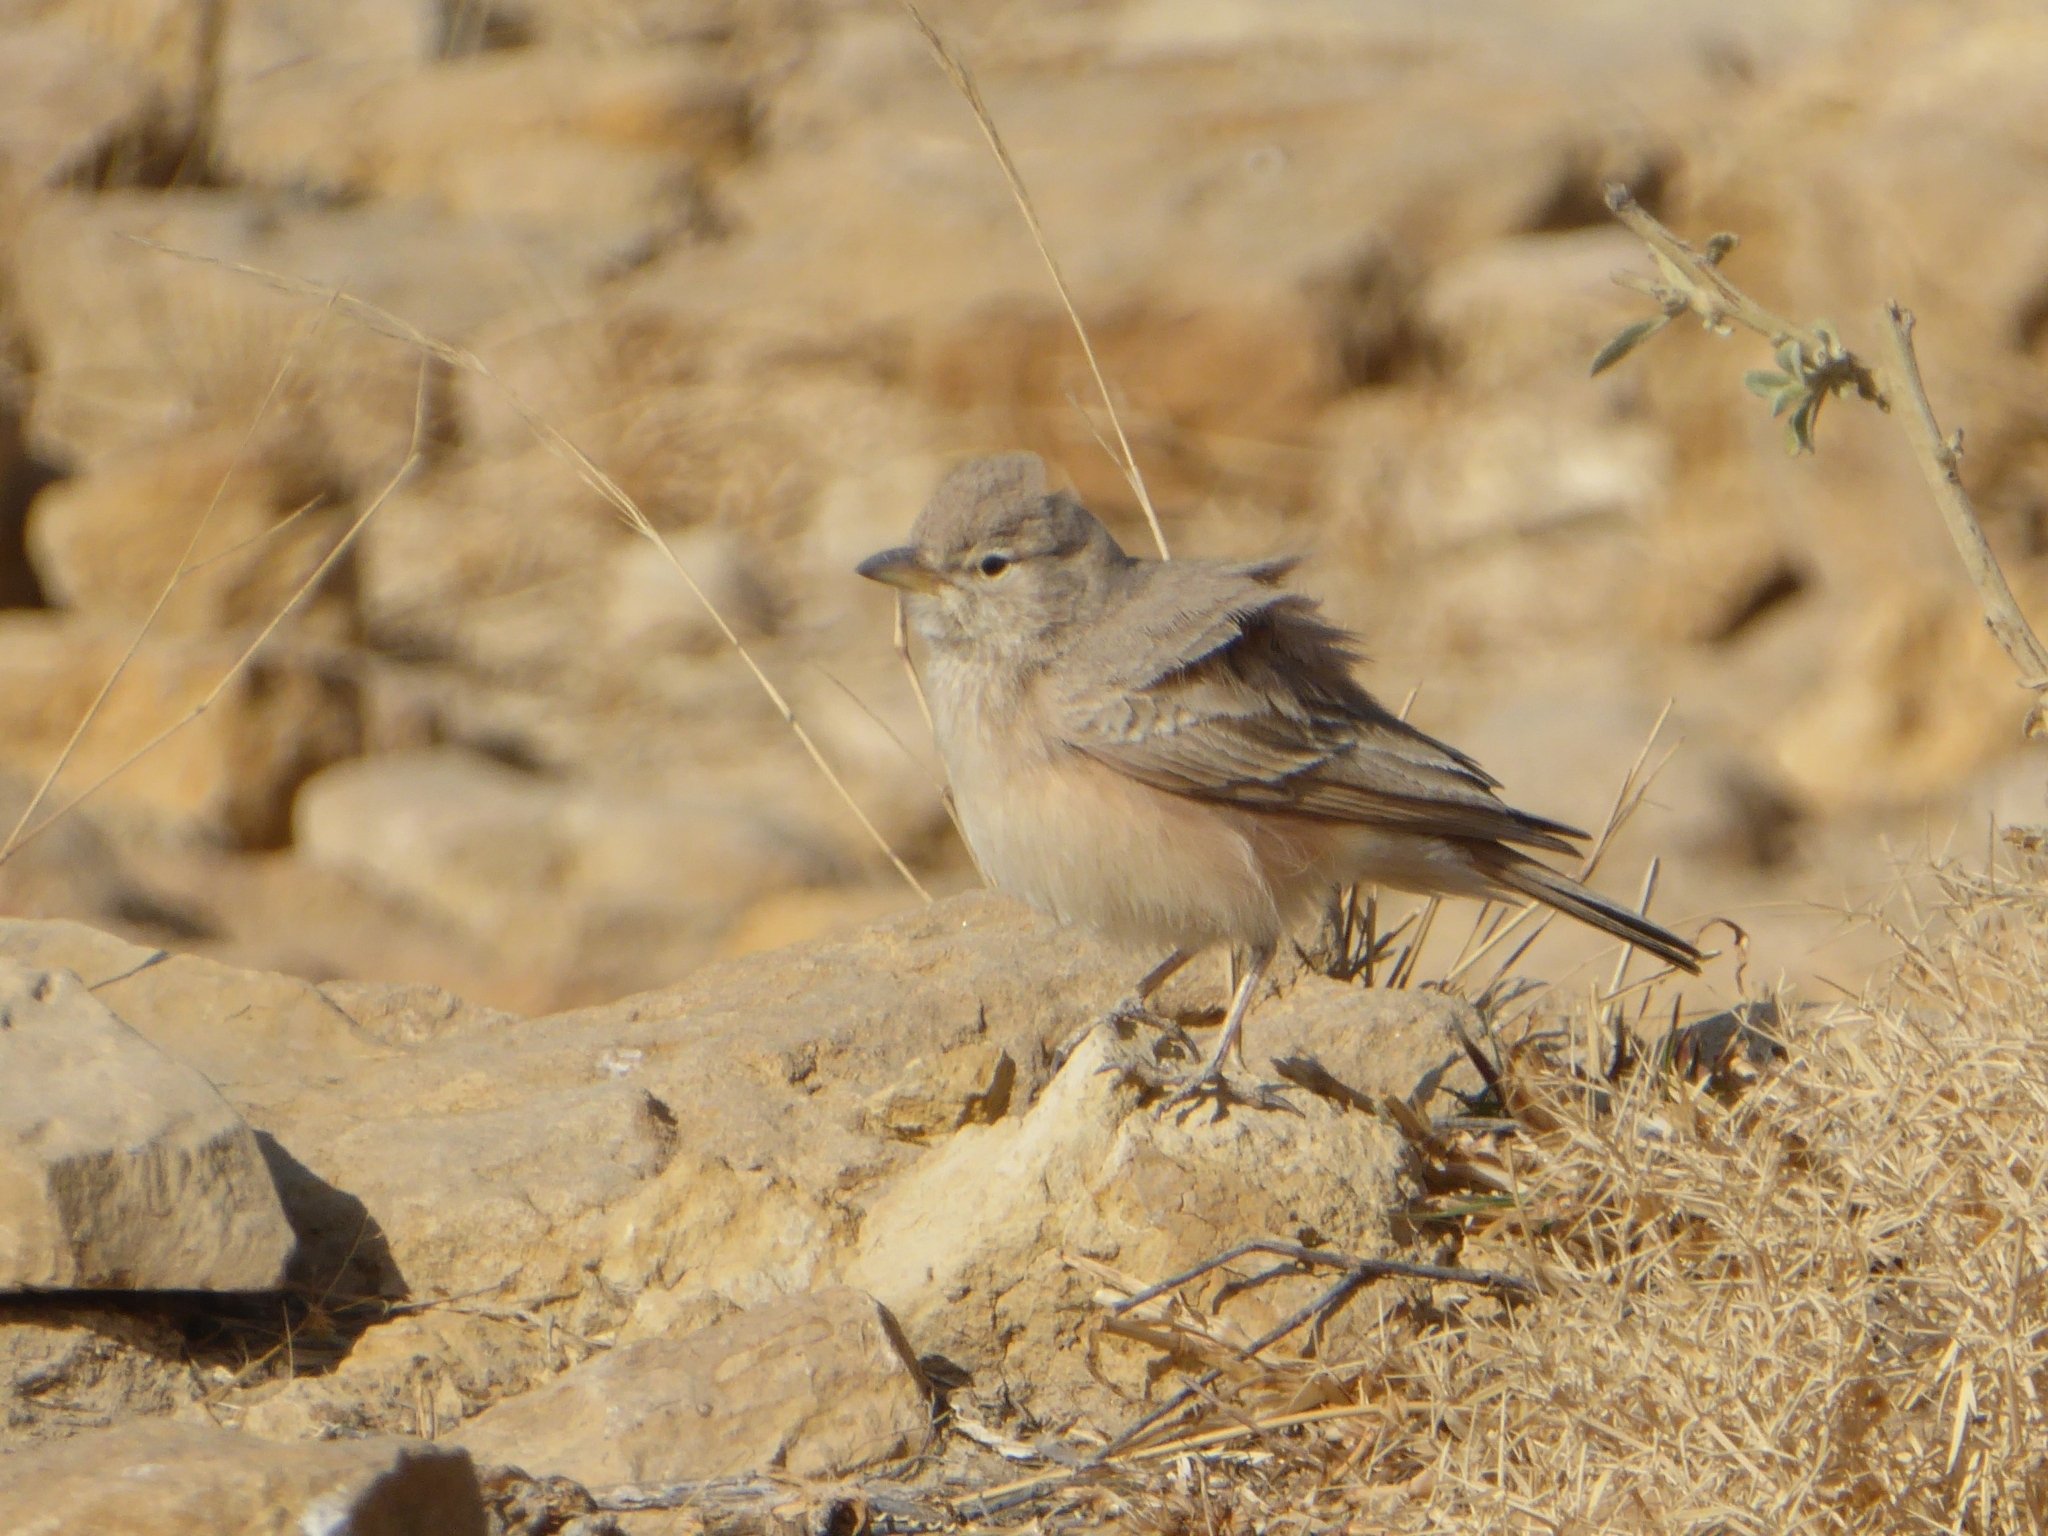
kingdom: Animalia
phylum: Chordata
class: Aves
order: Passeriformes
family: Alaudidae
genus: Ammomanes
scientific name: Ammomanes deserti
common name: Desert lark
